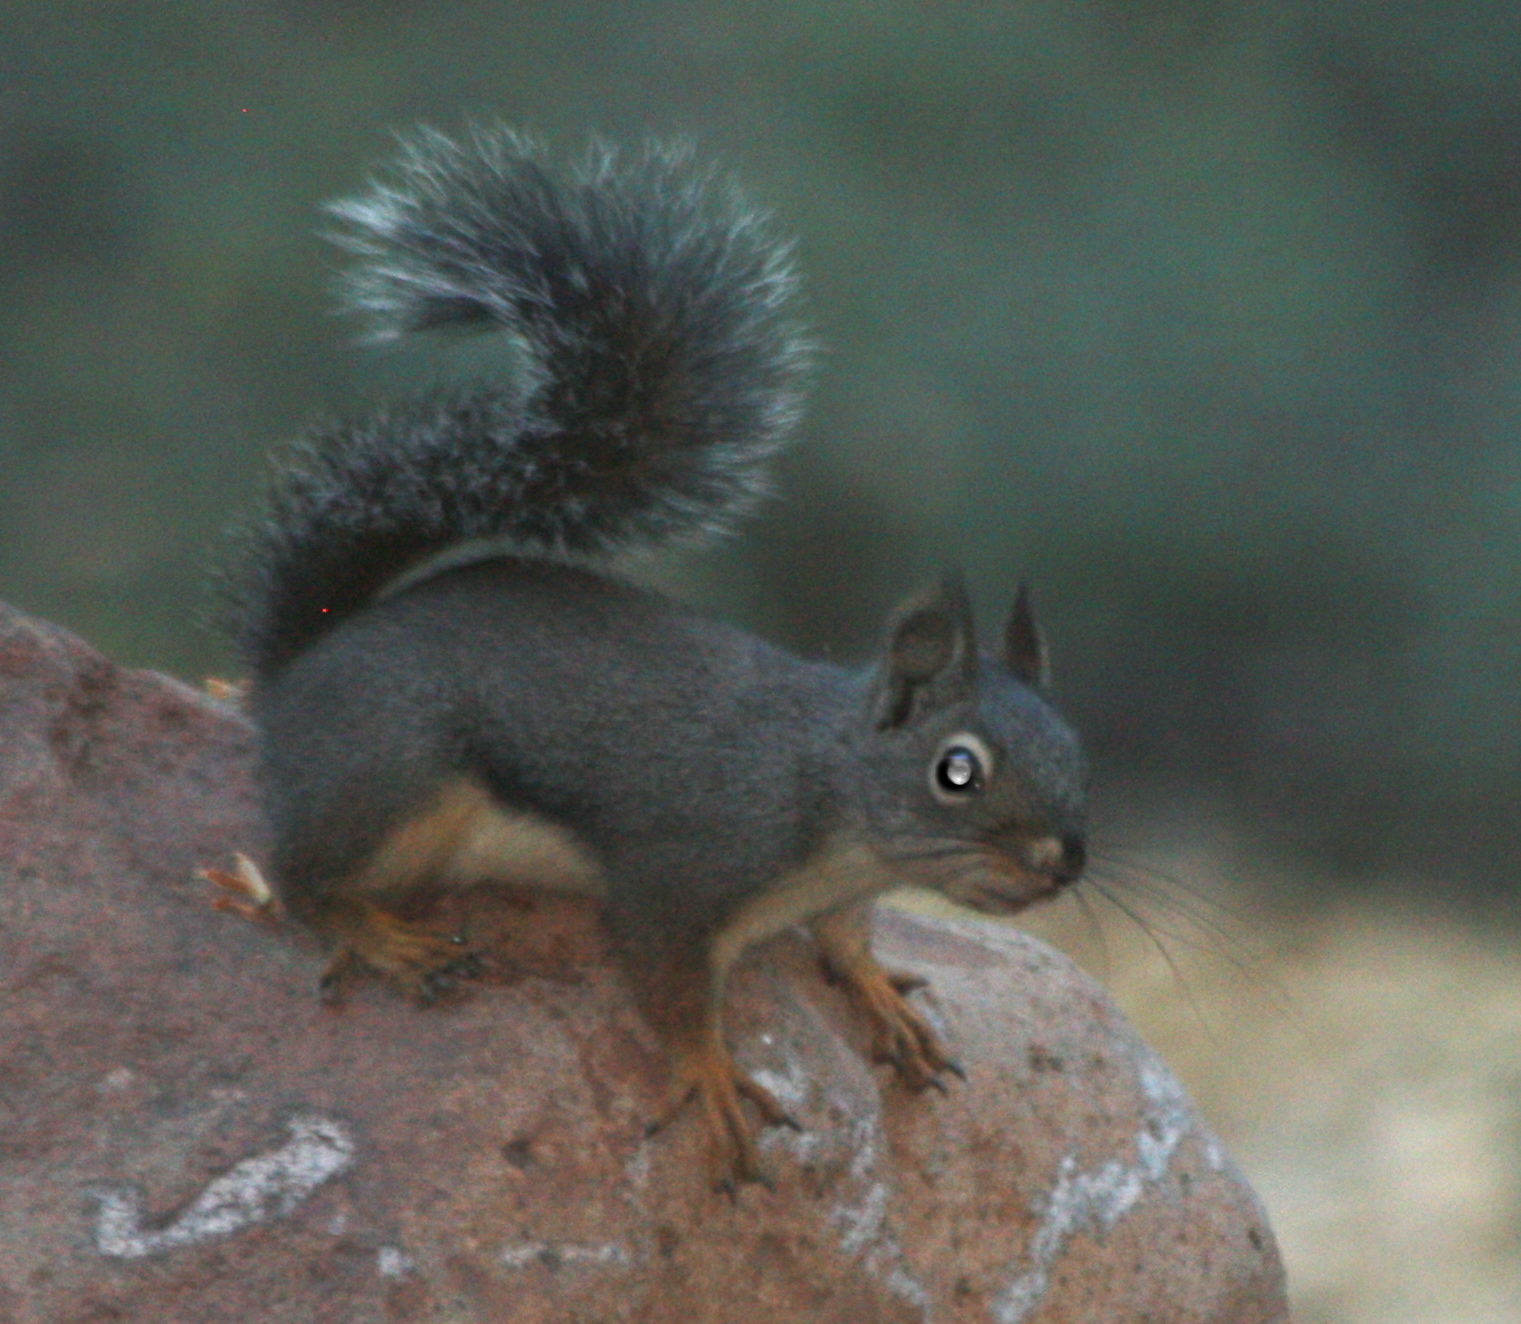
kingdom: Animalia
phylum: Chordata
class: Mammalia
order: Rodentia
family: Sciuridae
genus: Tamiasciurus
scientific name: Tamiasciurus douglasii
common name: Douglas's squirrel
